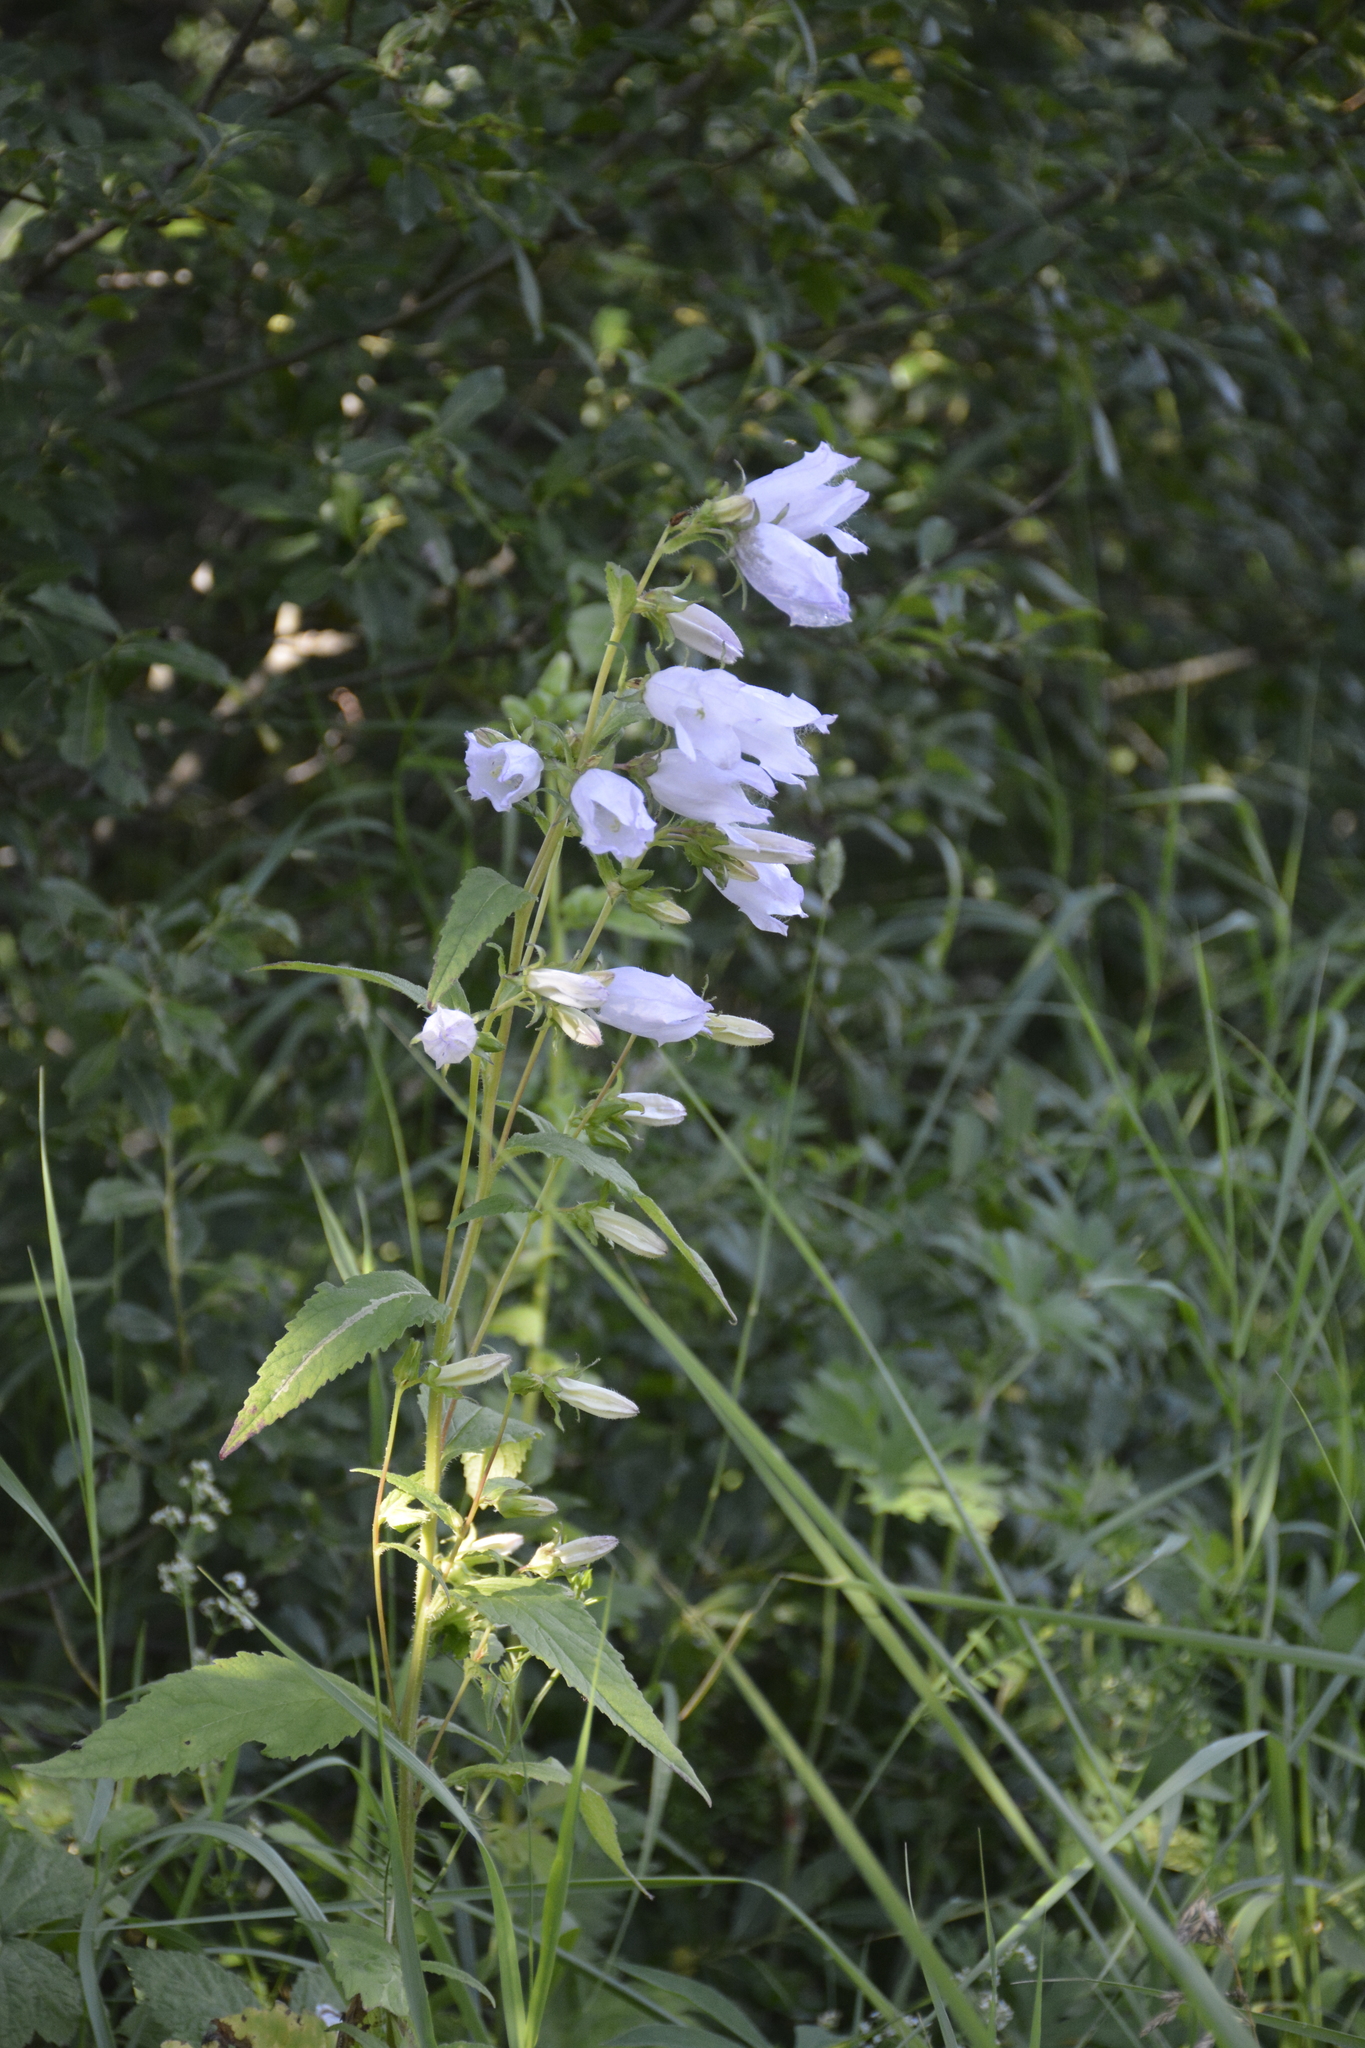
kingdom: Plantae
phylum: Tracheophyta
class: Magnoliopsida
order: Asterales
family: Campanulaceae
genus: Campanula
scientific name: Campanula trachelium
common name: Nettle-leaved bellflower
